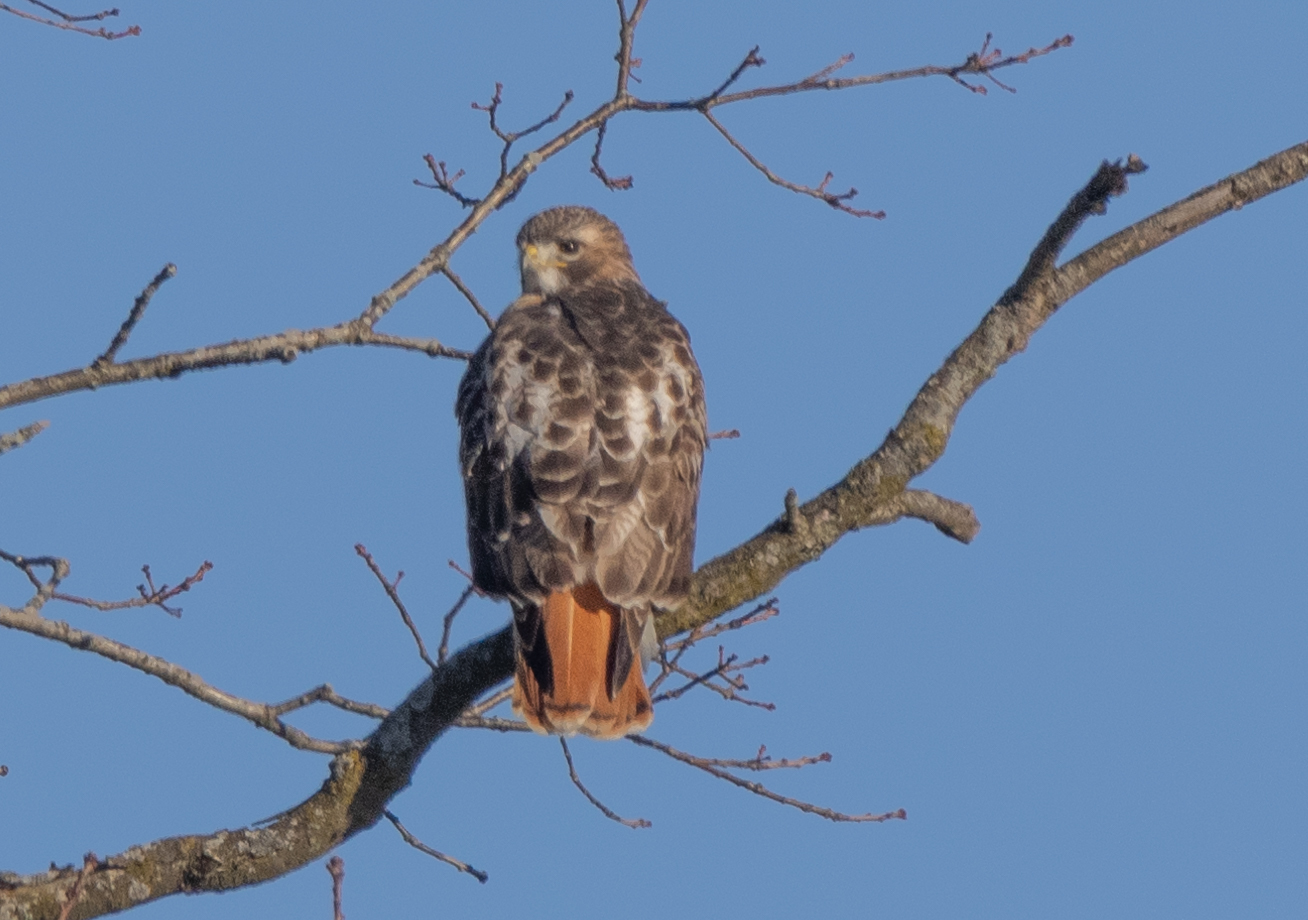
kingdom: Animalia
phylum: Chordata
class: Aves
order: Accipitriformes
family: Accipitridae
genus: Buteo
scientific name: Buteo jamaicensis
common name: Red-tailed hawk
